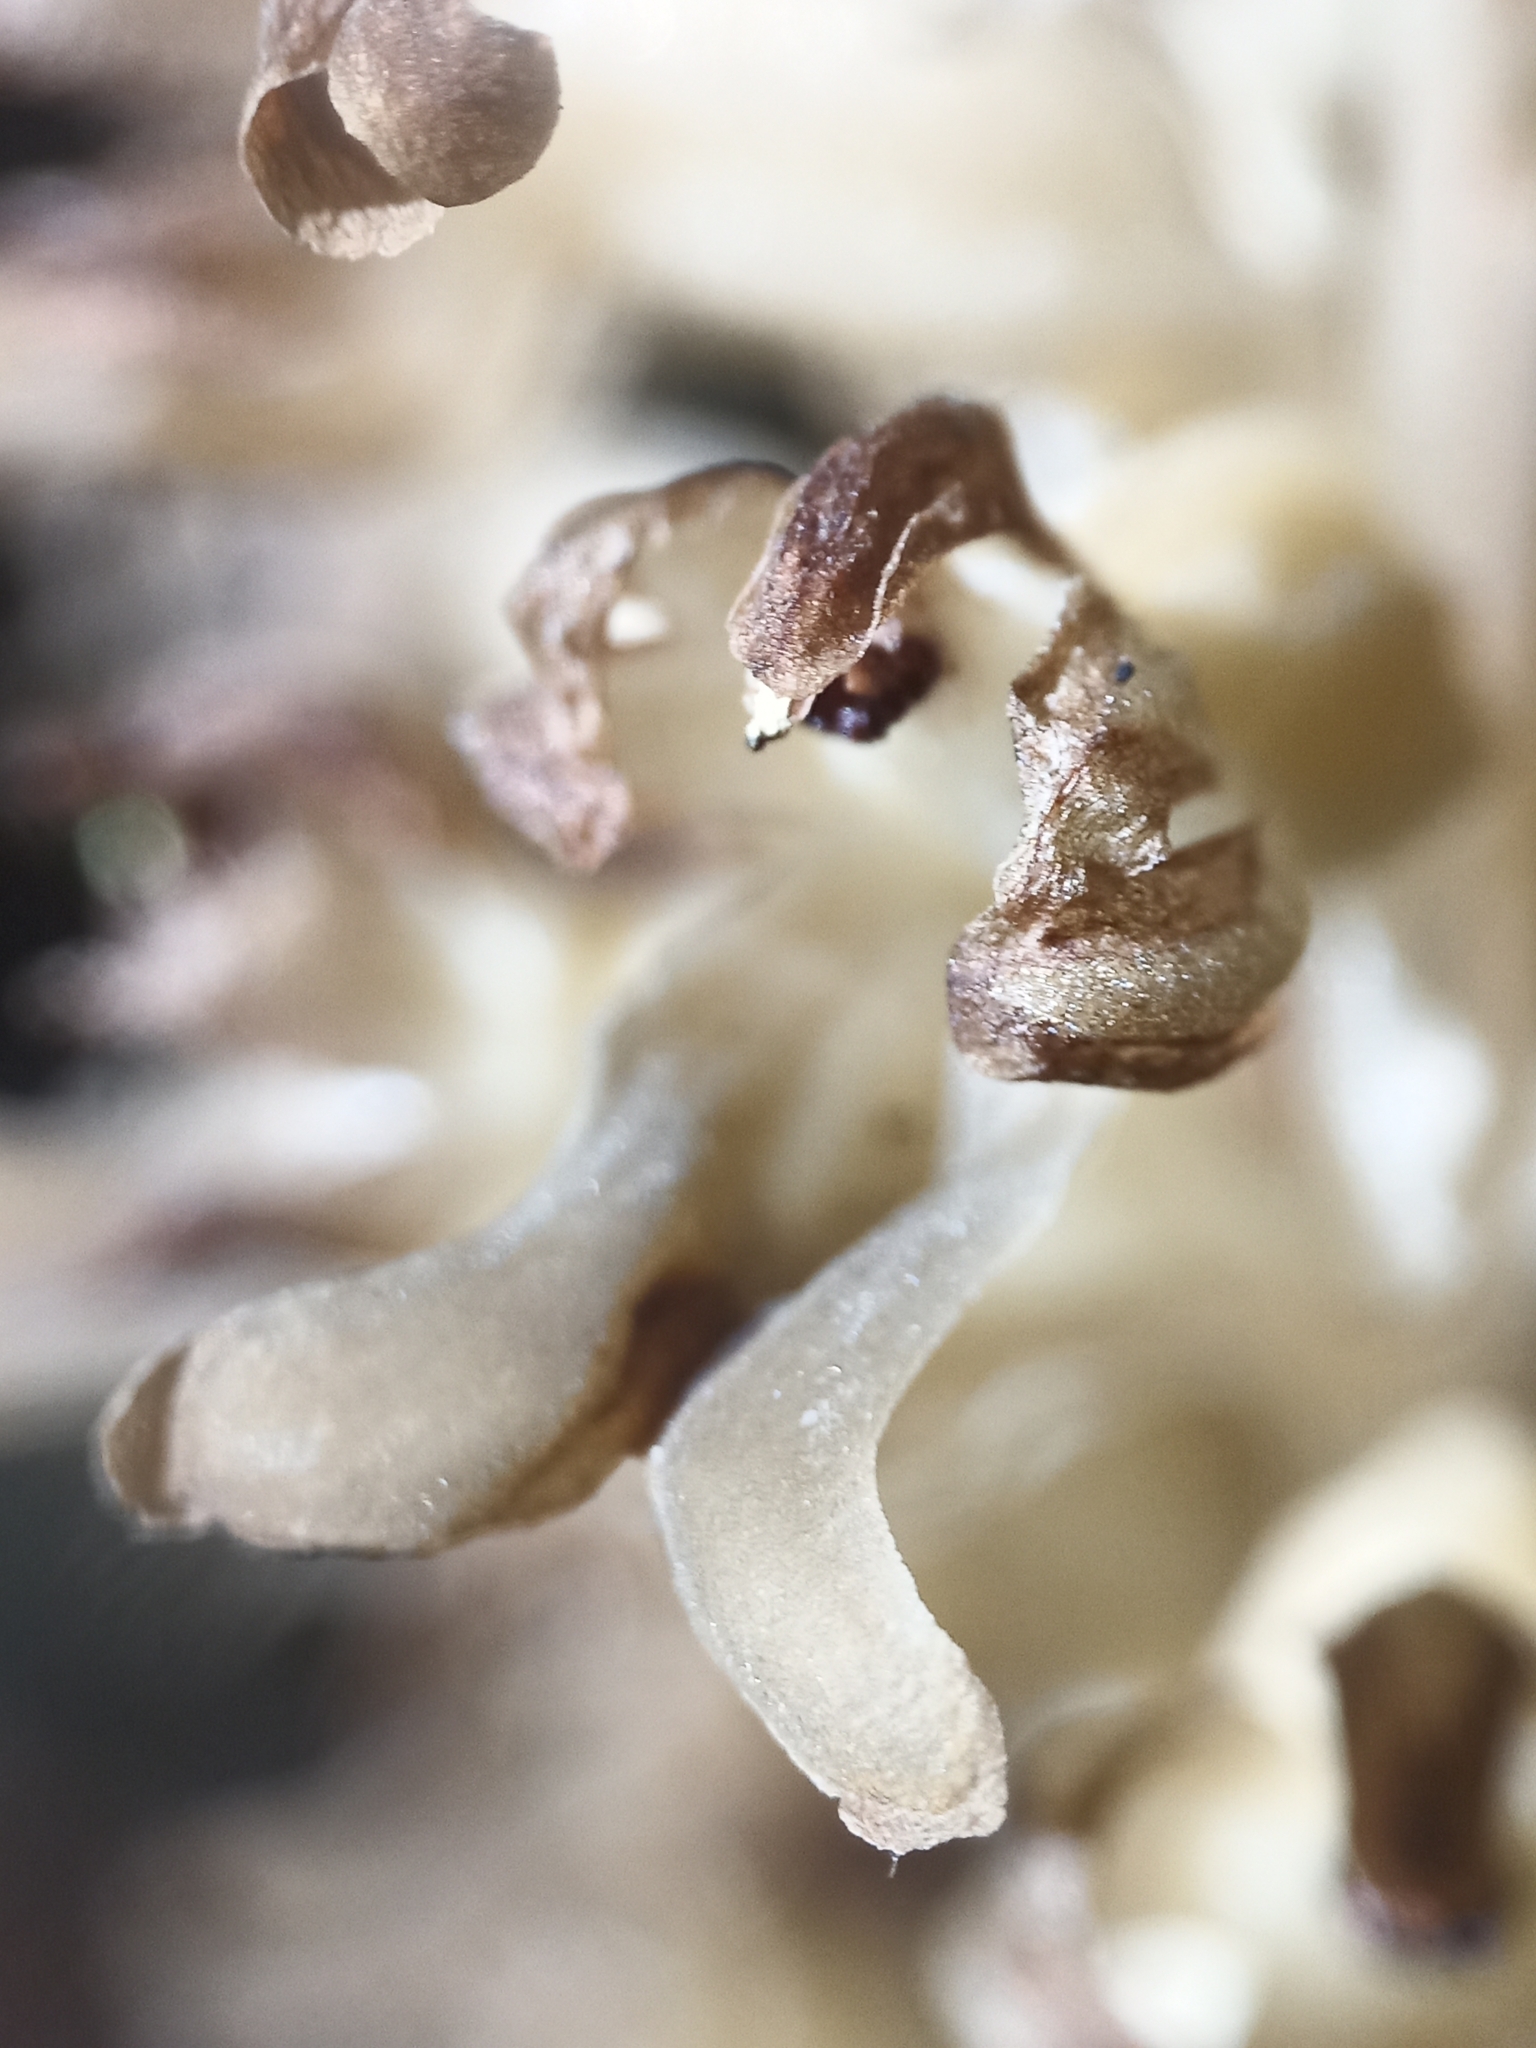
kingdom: Plantae
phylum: Tracheophyta
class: Liliopsida
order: Asparagales
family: Orchidaceae
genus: Neottia
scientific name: Neottia nidus-avis
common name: Bird's-nest orchid
